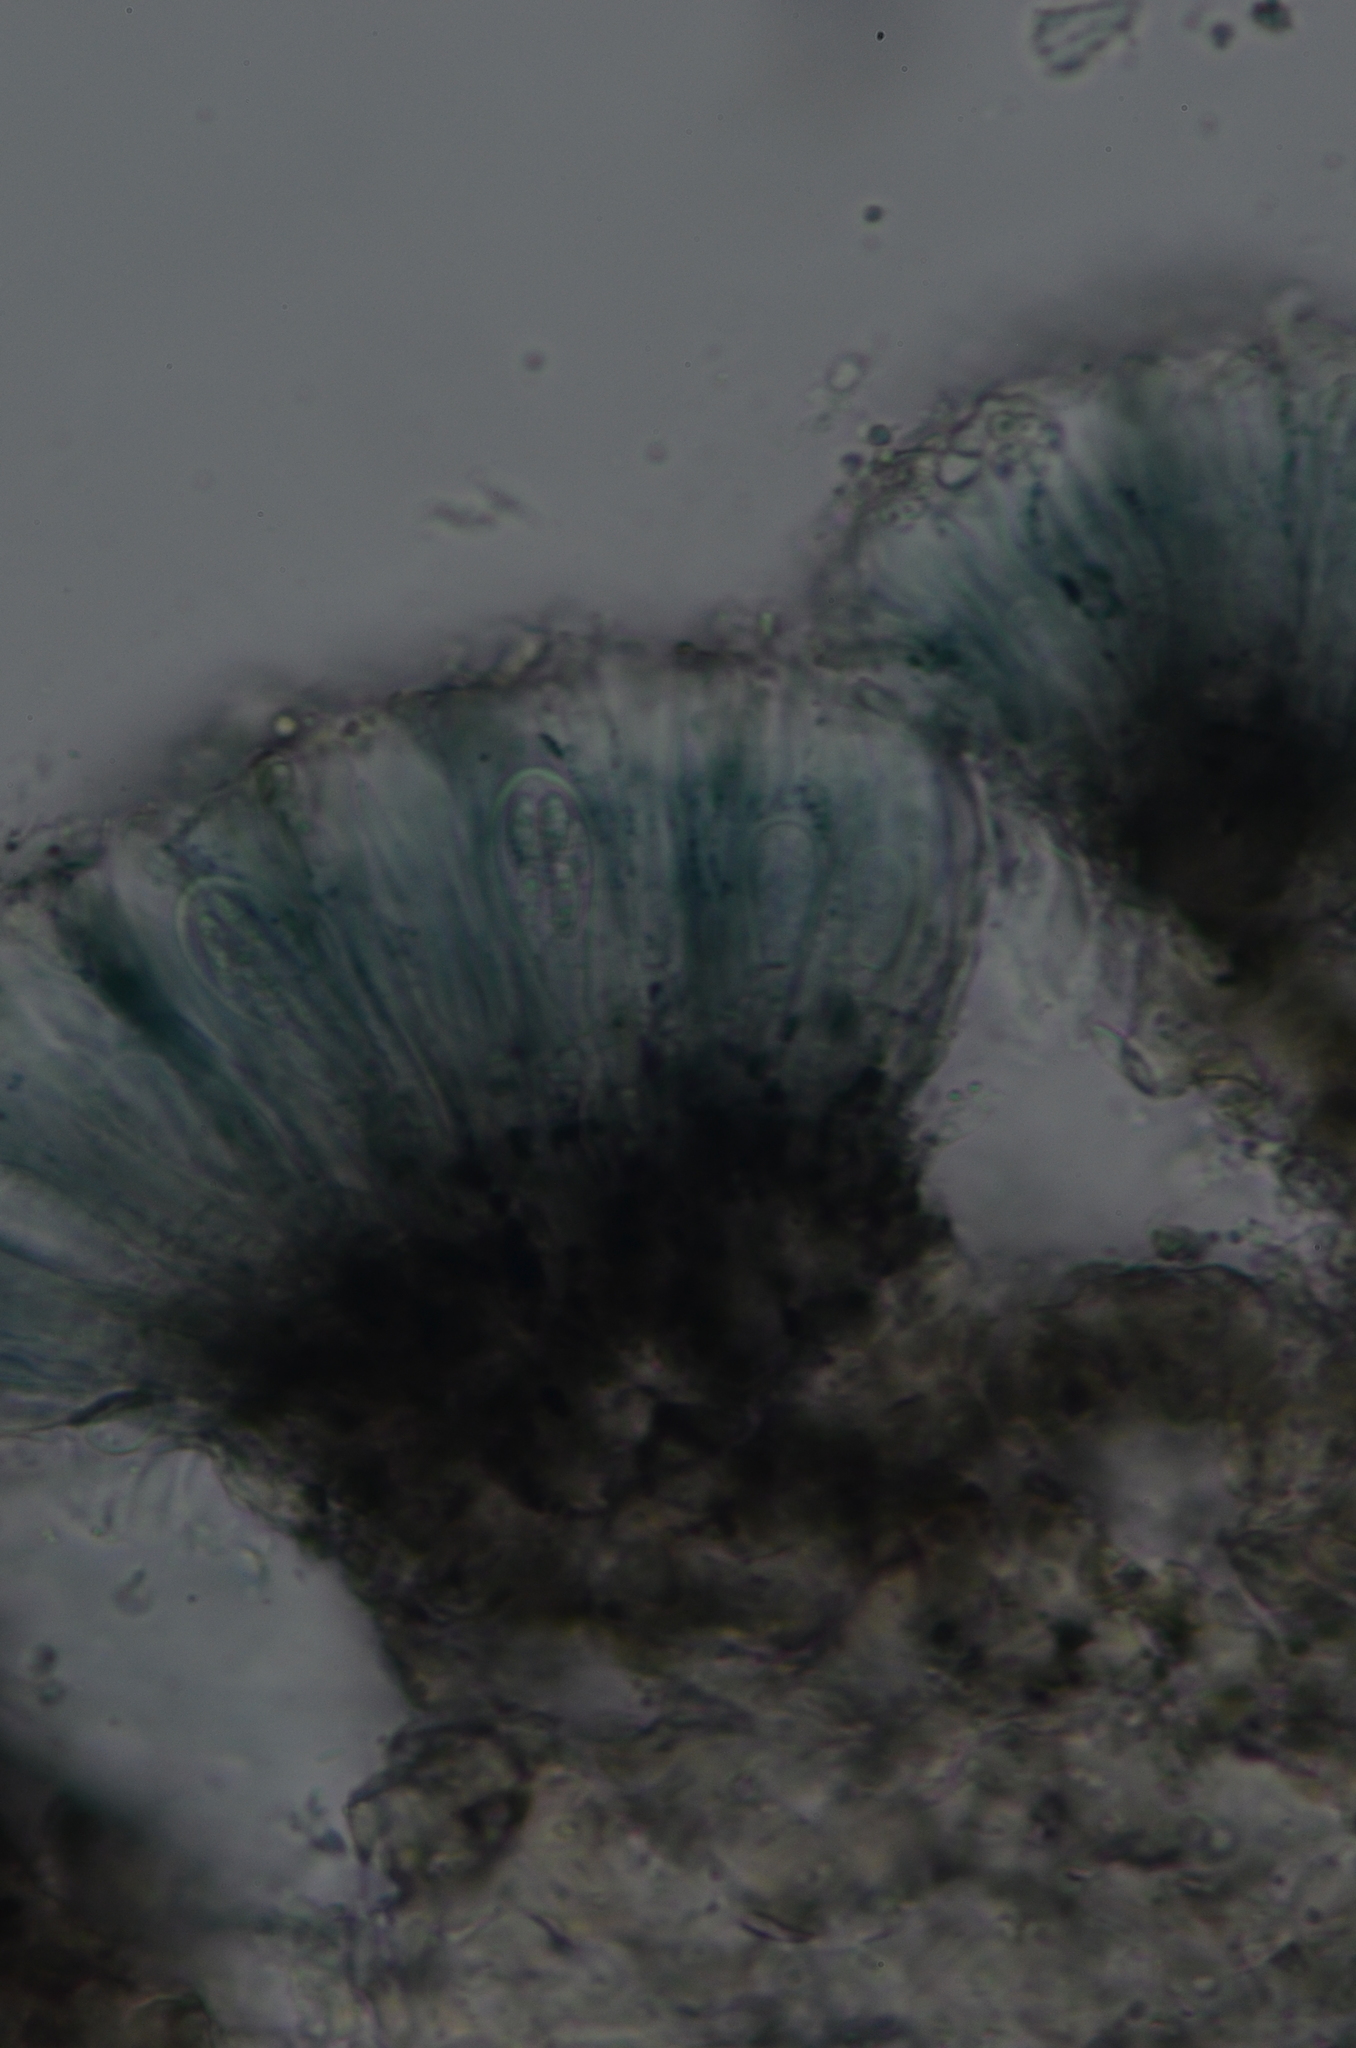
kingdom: Fungi
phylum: Ascomycota
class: Lecanoromycetes
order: Lecanorales
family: Ramalinaceae
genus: Megalaria
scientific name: Megalaria columbiana
